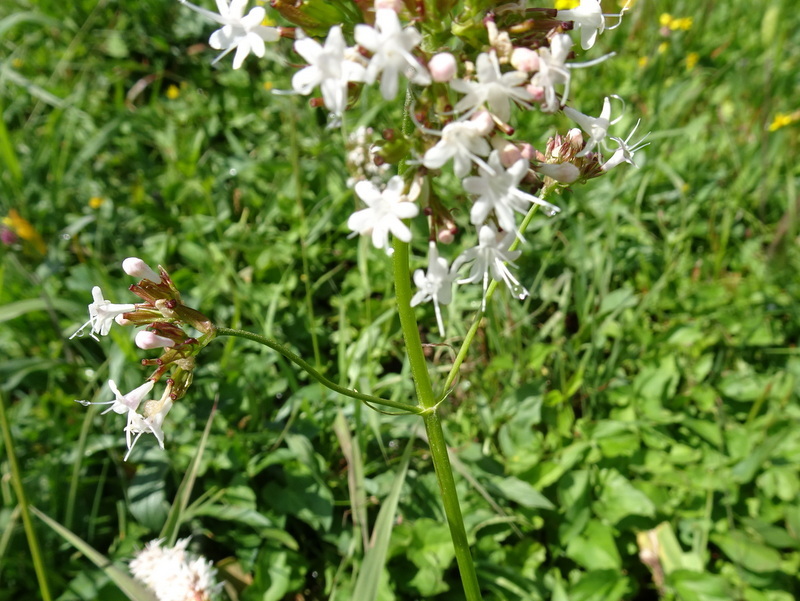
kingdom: Plantae
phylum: Tracheophyta
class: Magnoliopsida
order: Dipsacales
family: Caprifoliaceae
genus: Valeriana
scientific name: Valeriana sitchensis
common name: Pacific valerian
